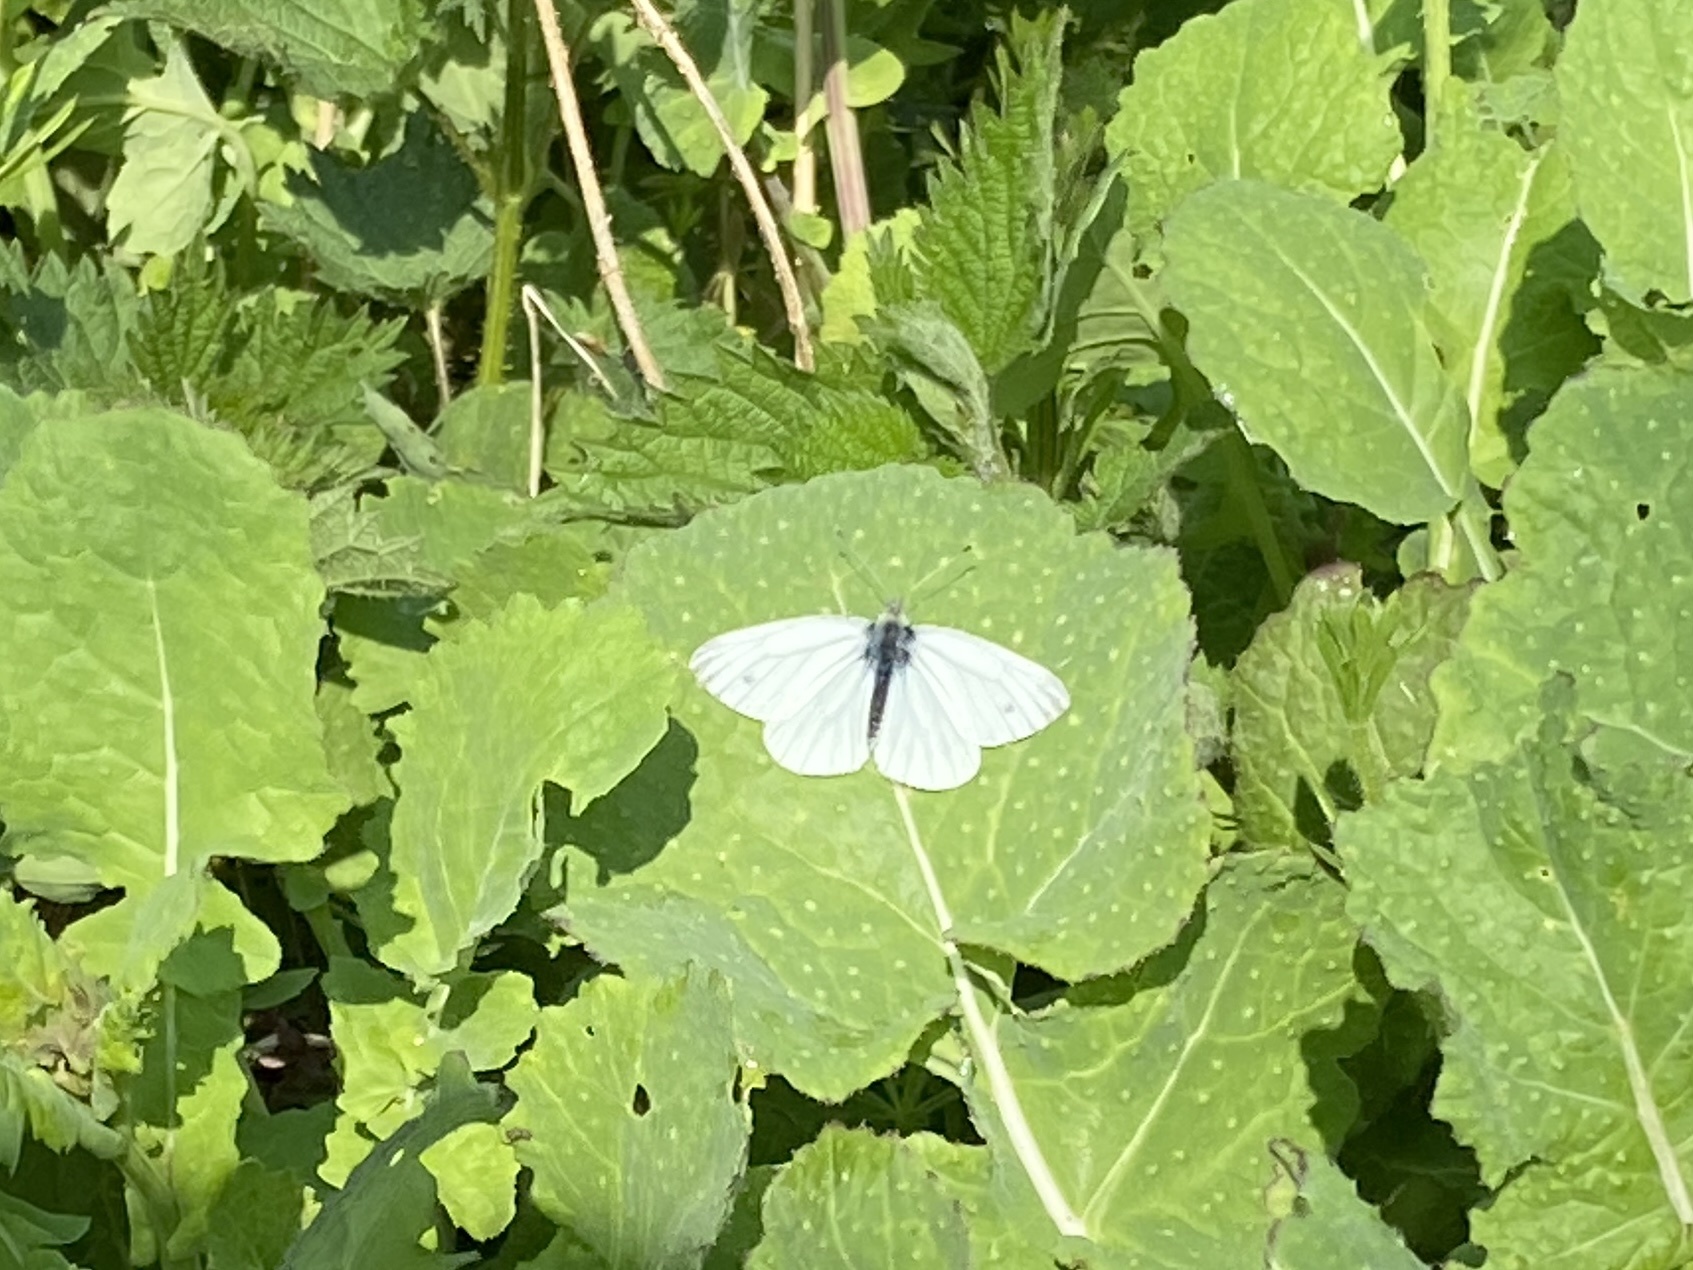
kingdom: Animalia
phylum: Arthropoda
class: Insecta
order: Lepidoptera
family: Pieridae
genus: Pieris
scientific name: Pieris napi
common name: Green-veined white
